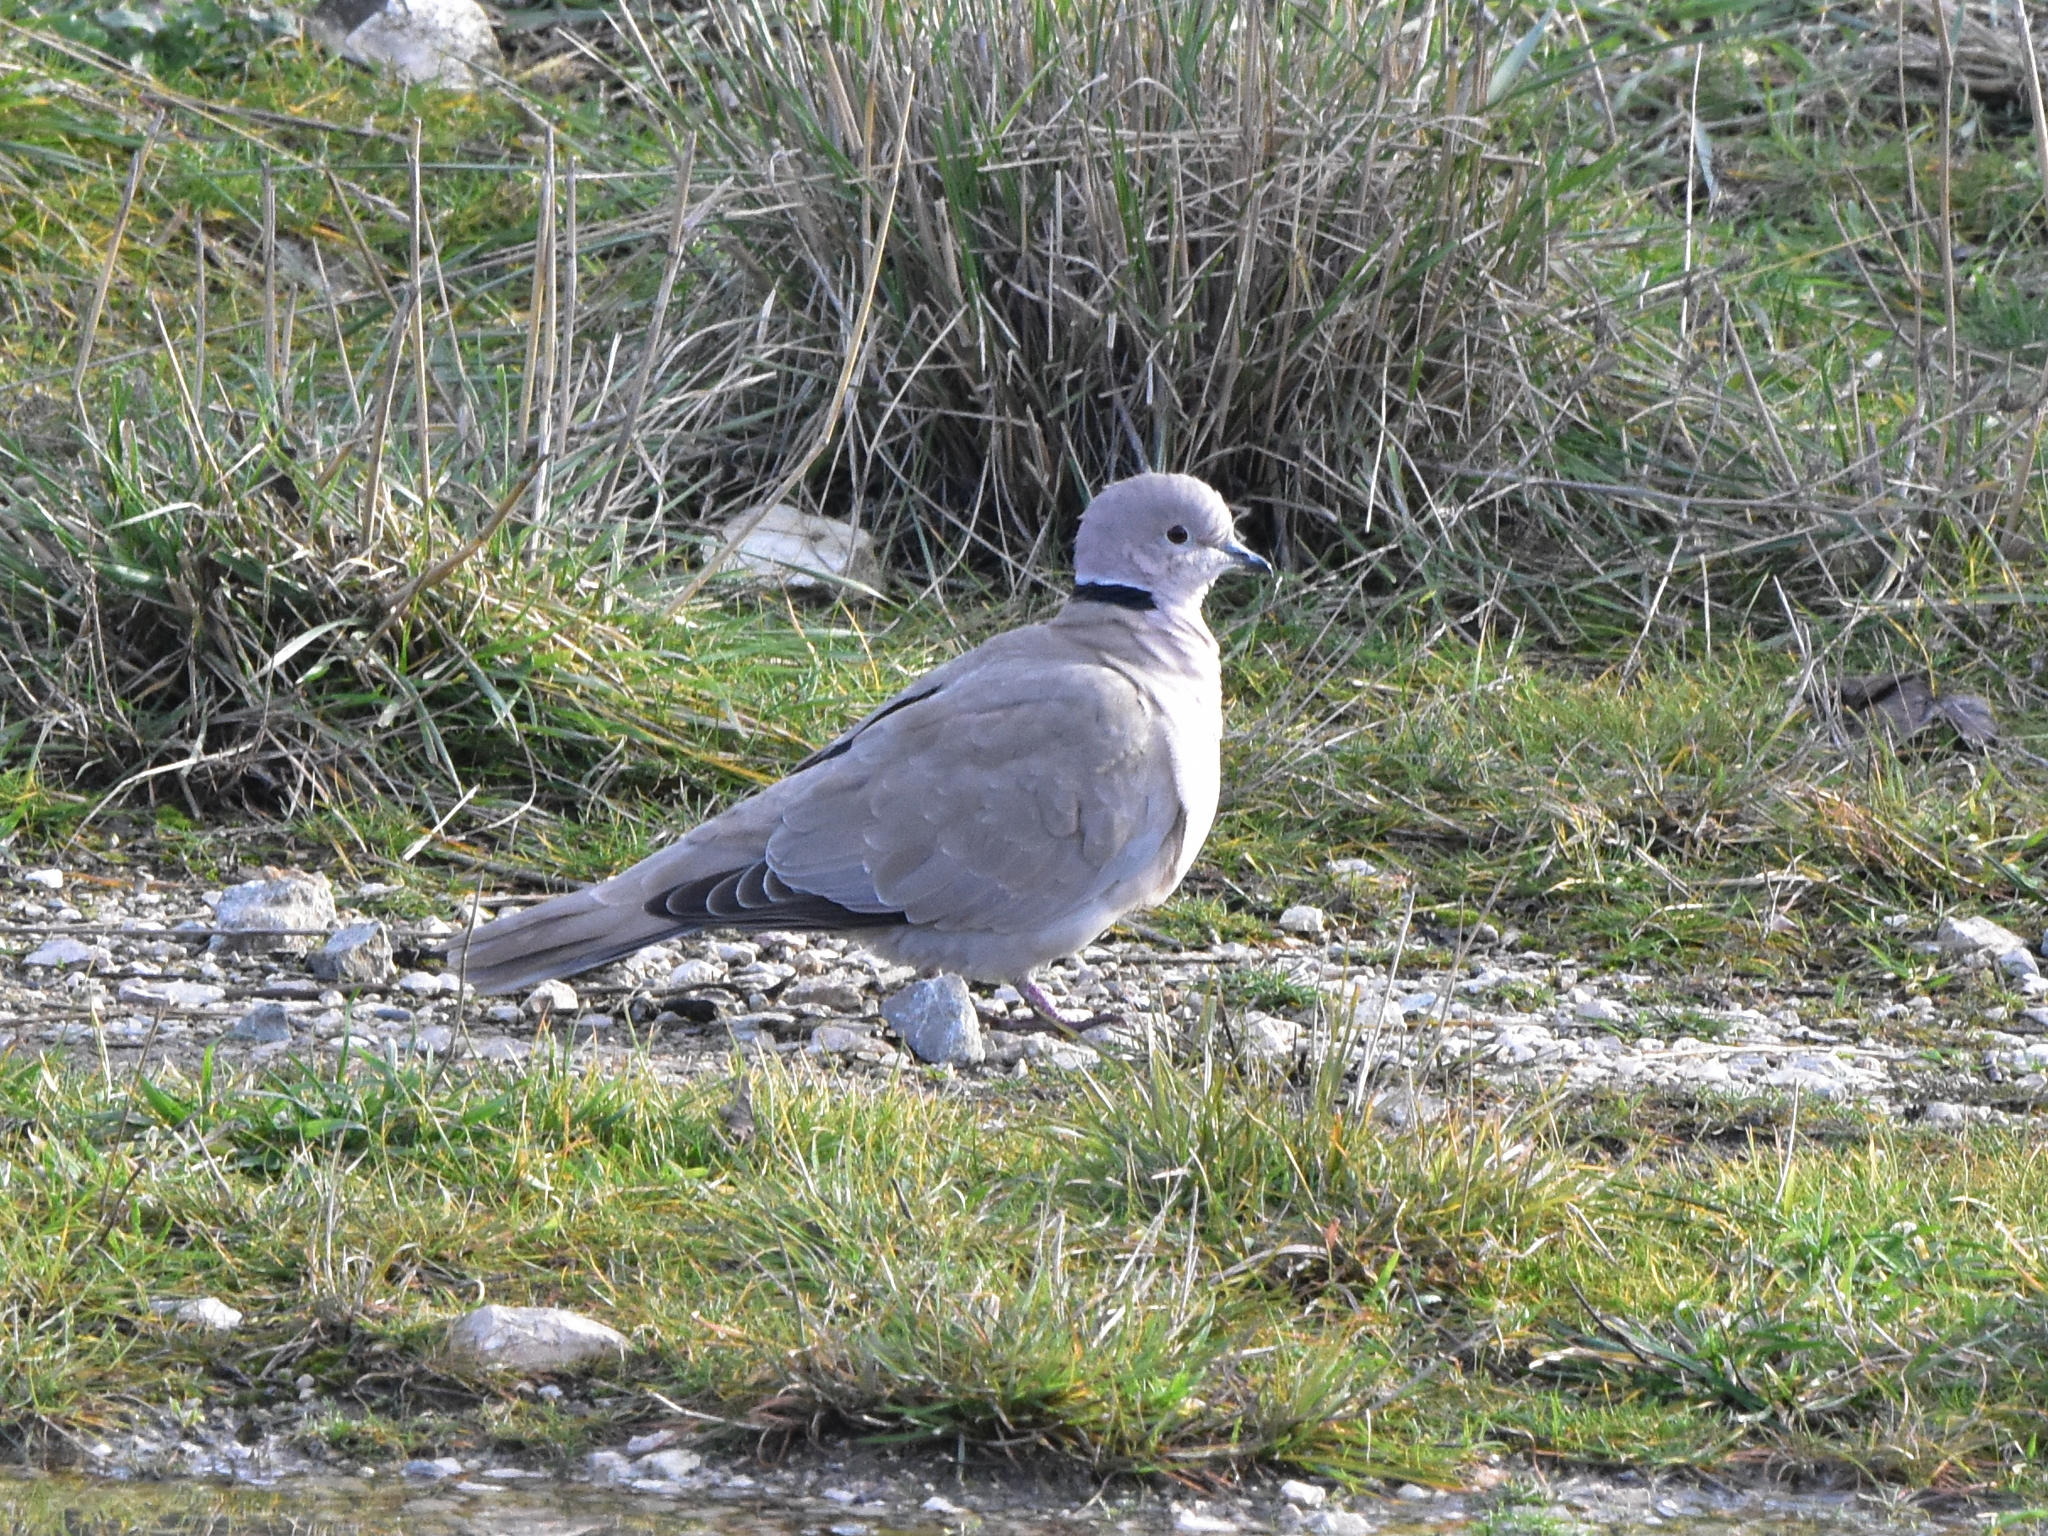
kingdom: Animalia
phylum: Chordata
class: Aves
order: Columbiformes
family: Columbidae
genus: Streptopelia
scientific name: Streptopelia decaocto
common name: Eurasian collared dove
